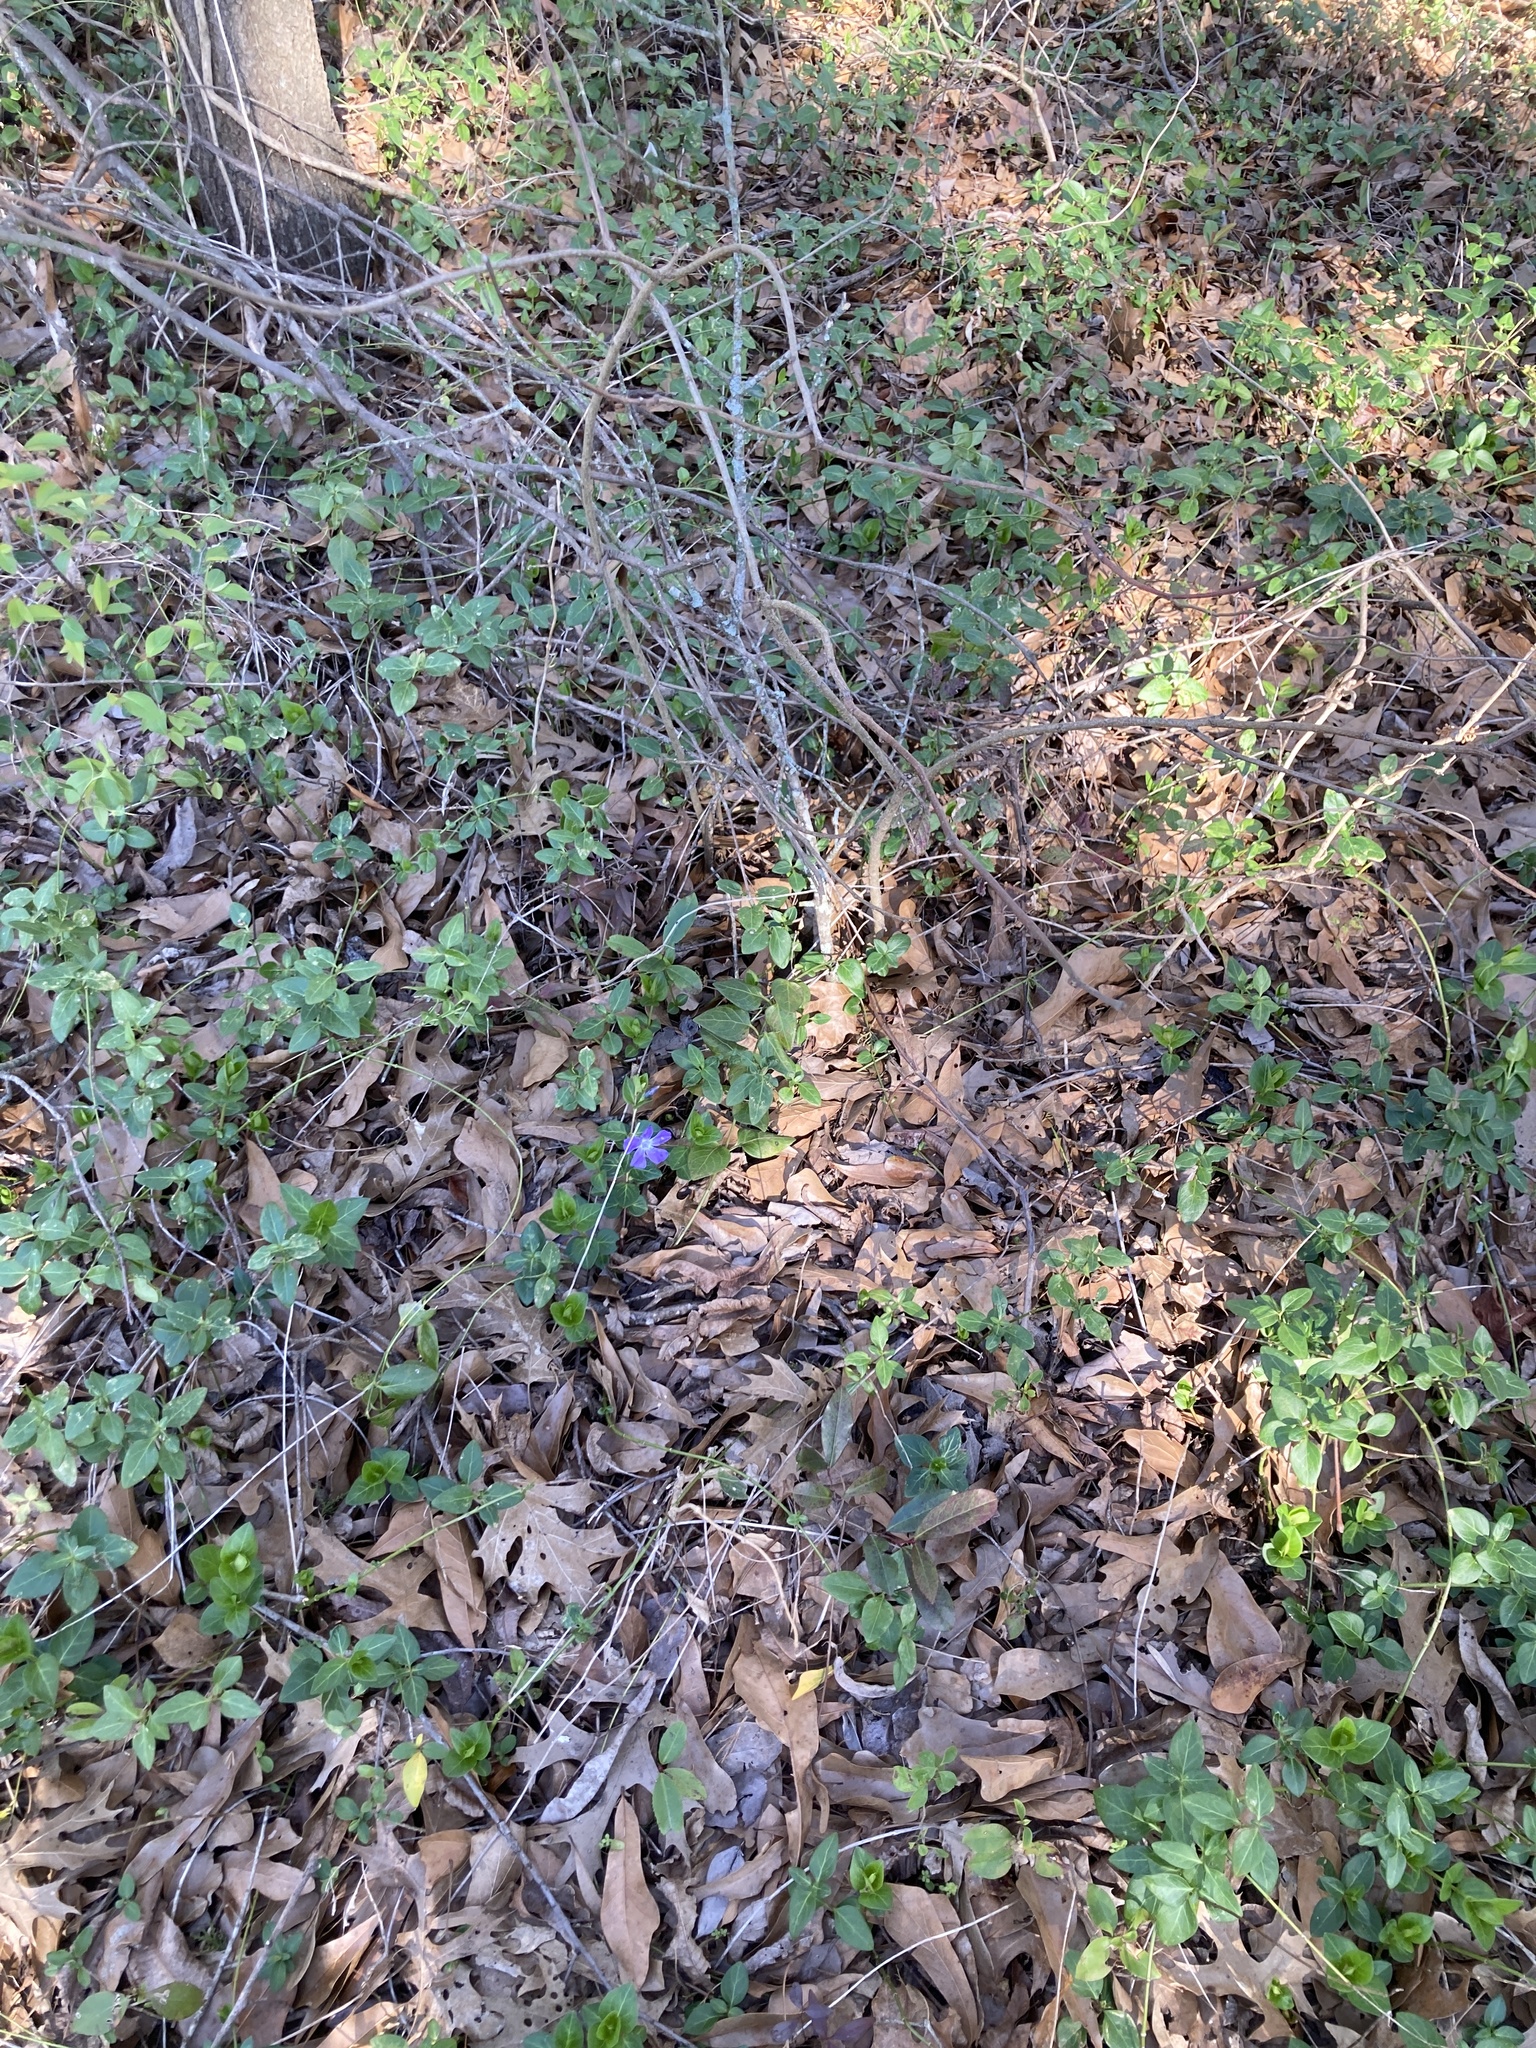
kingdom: Plantae
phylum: Tracheophyta
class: Magnoliopsida
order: Gentianales
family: Apocynaceae
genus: Vinca
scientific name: Vinca major
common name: Greater periwinkle
